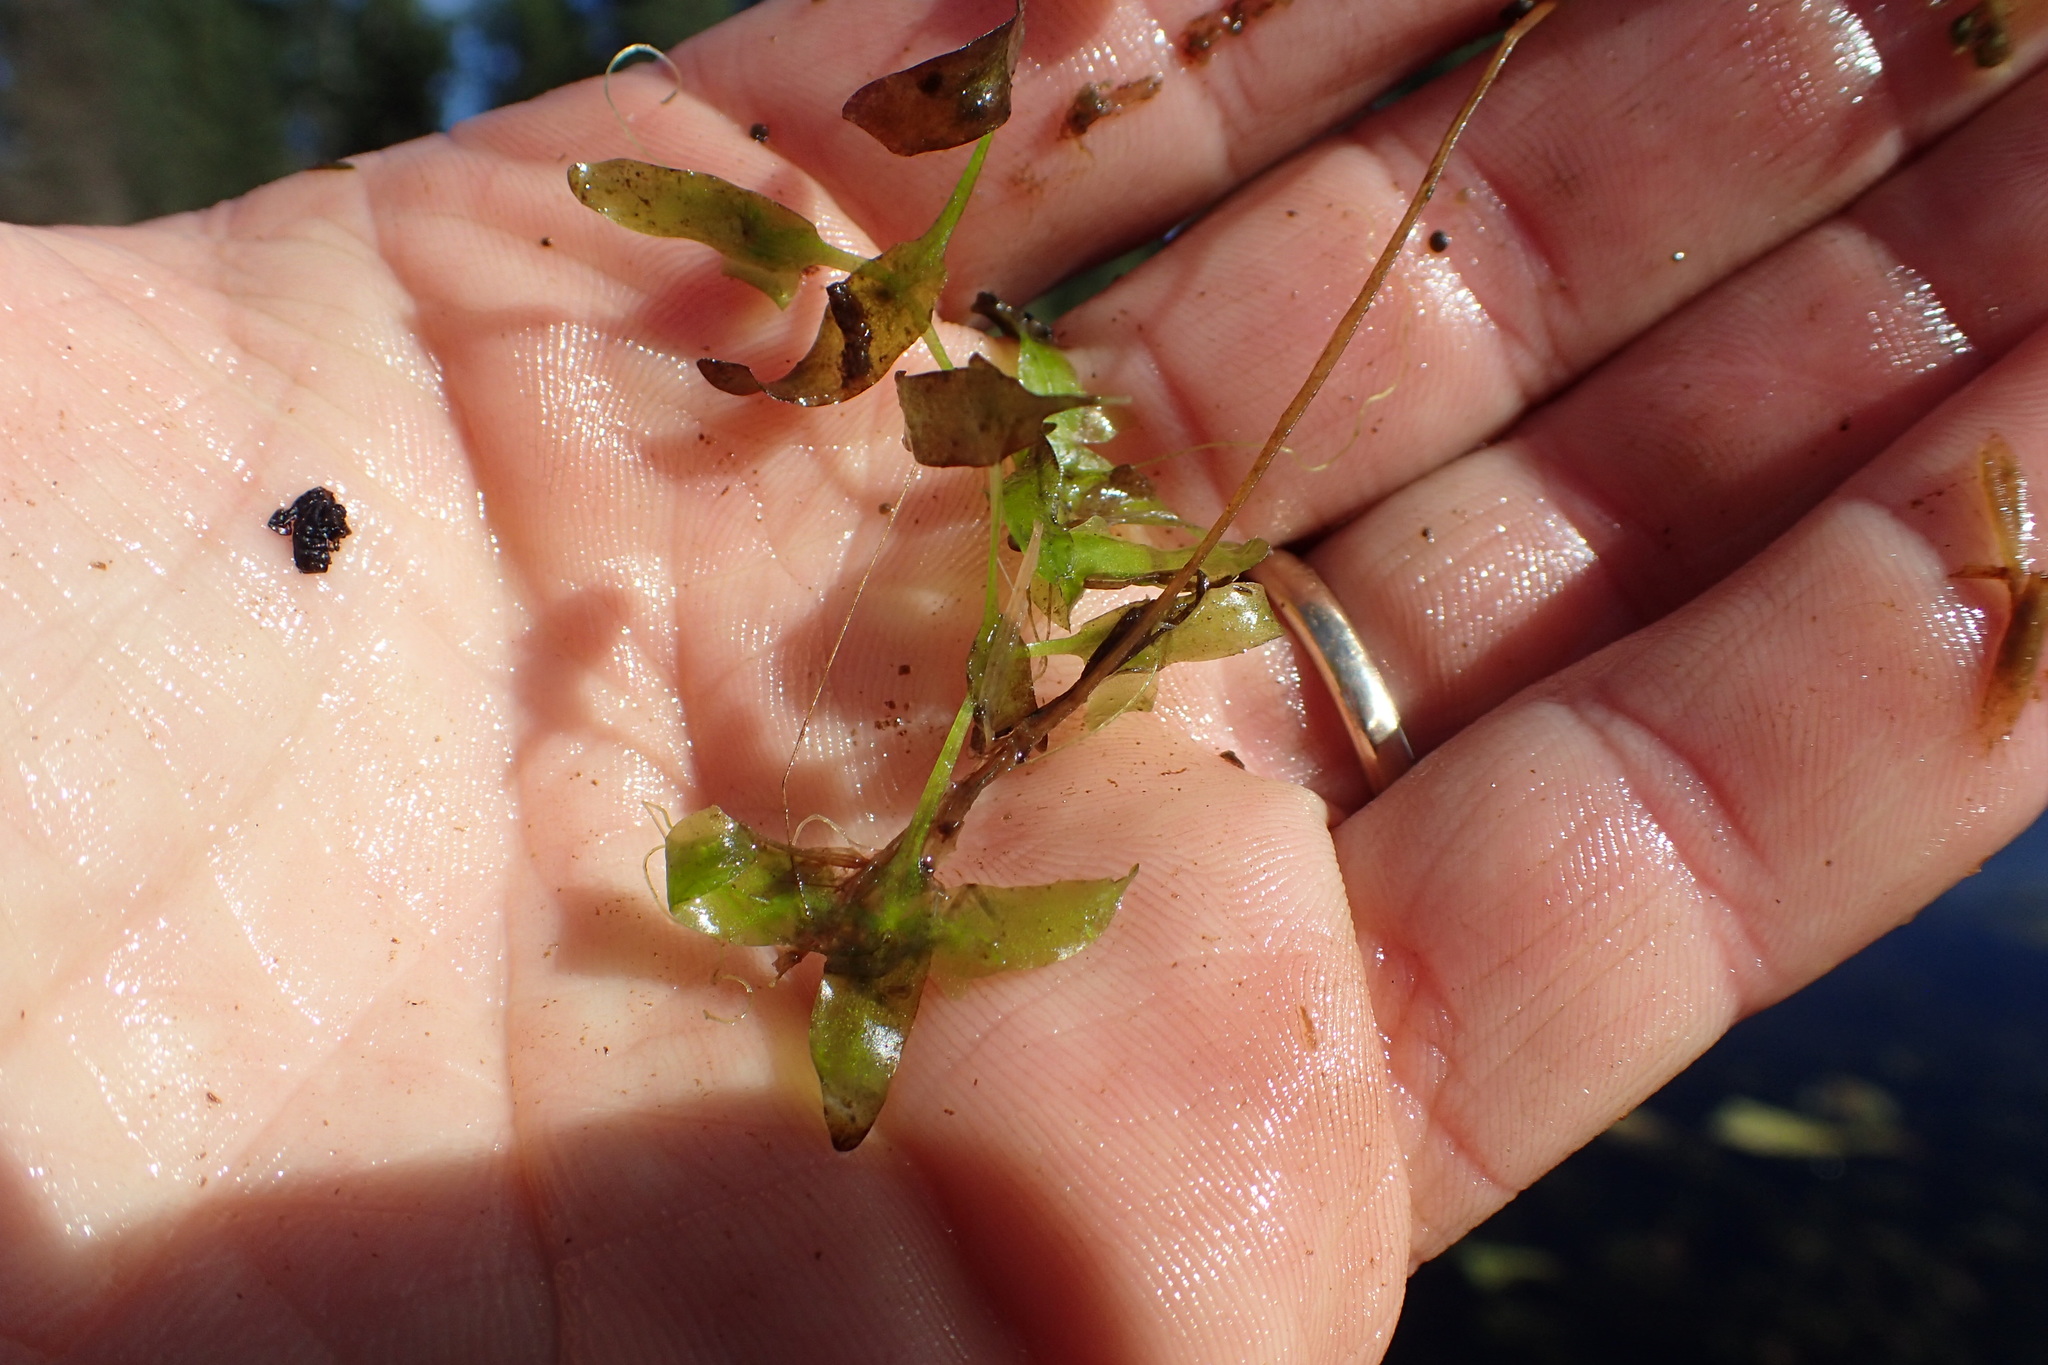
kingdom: Plantae
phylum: Tracheophyta
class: Liliopsida
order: Alismatales
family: Araceae
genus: Lemna
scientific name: Lemna trisulca
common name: Ivy-leaved duckweed
